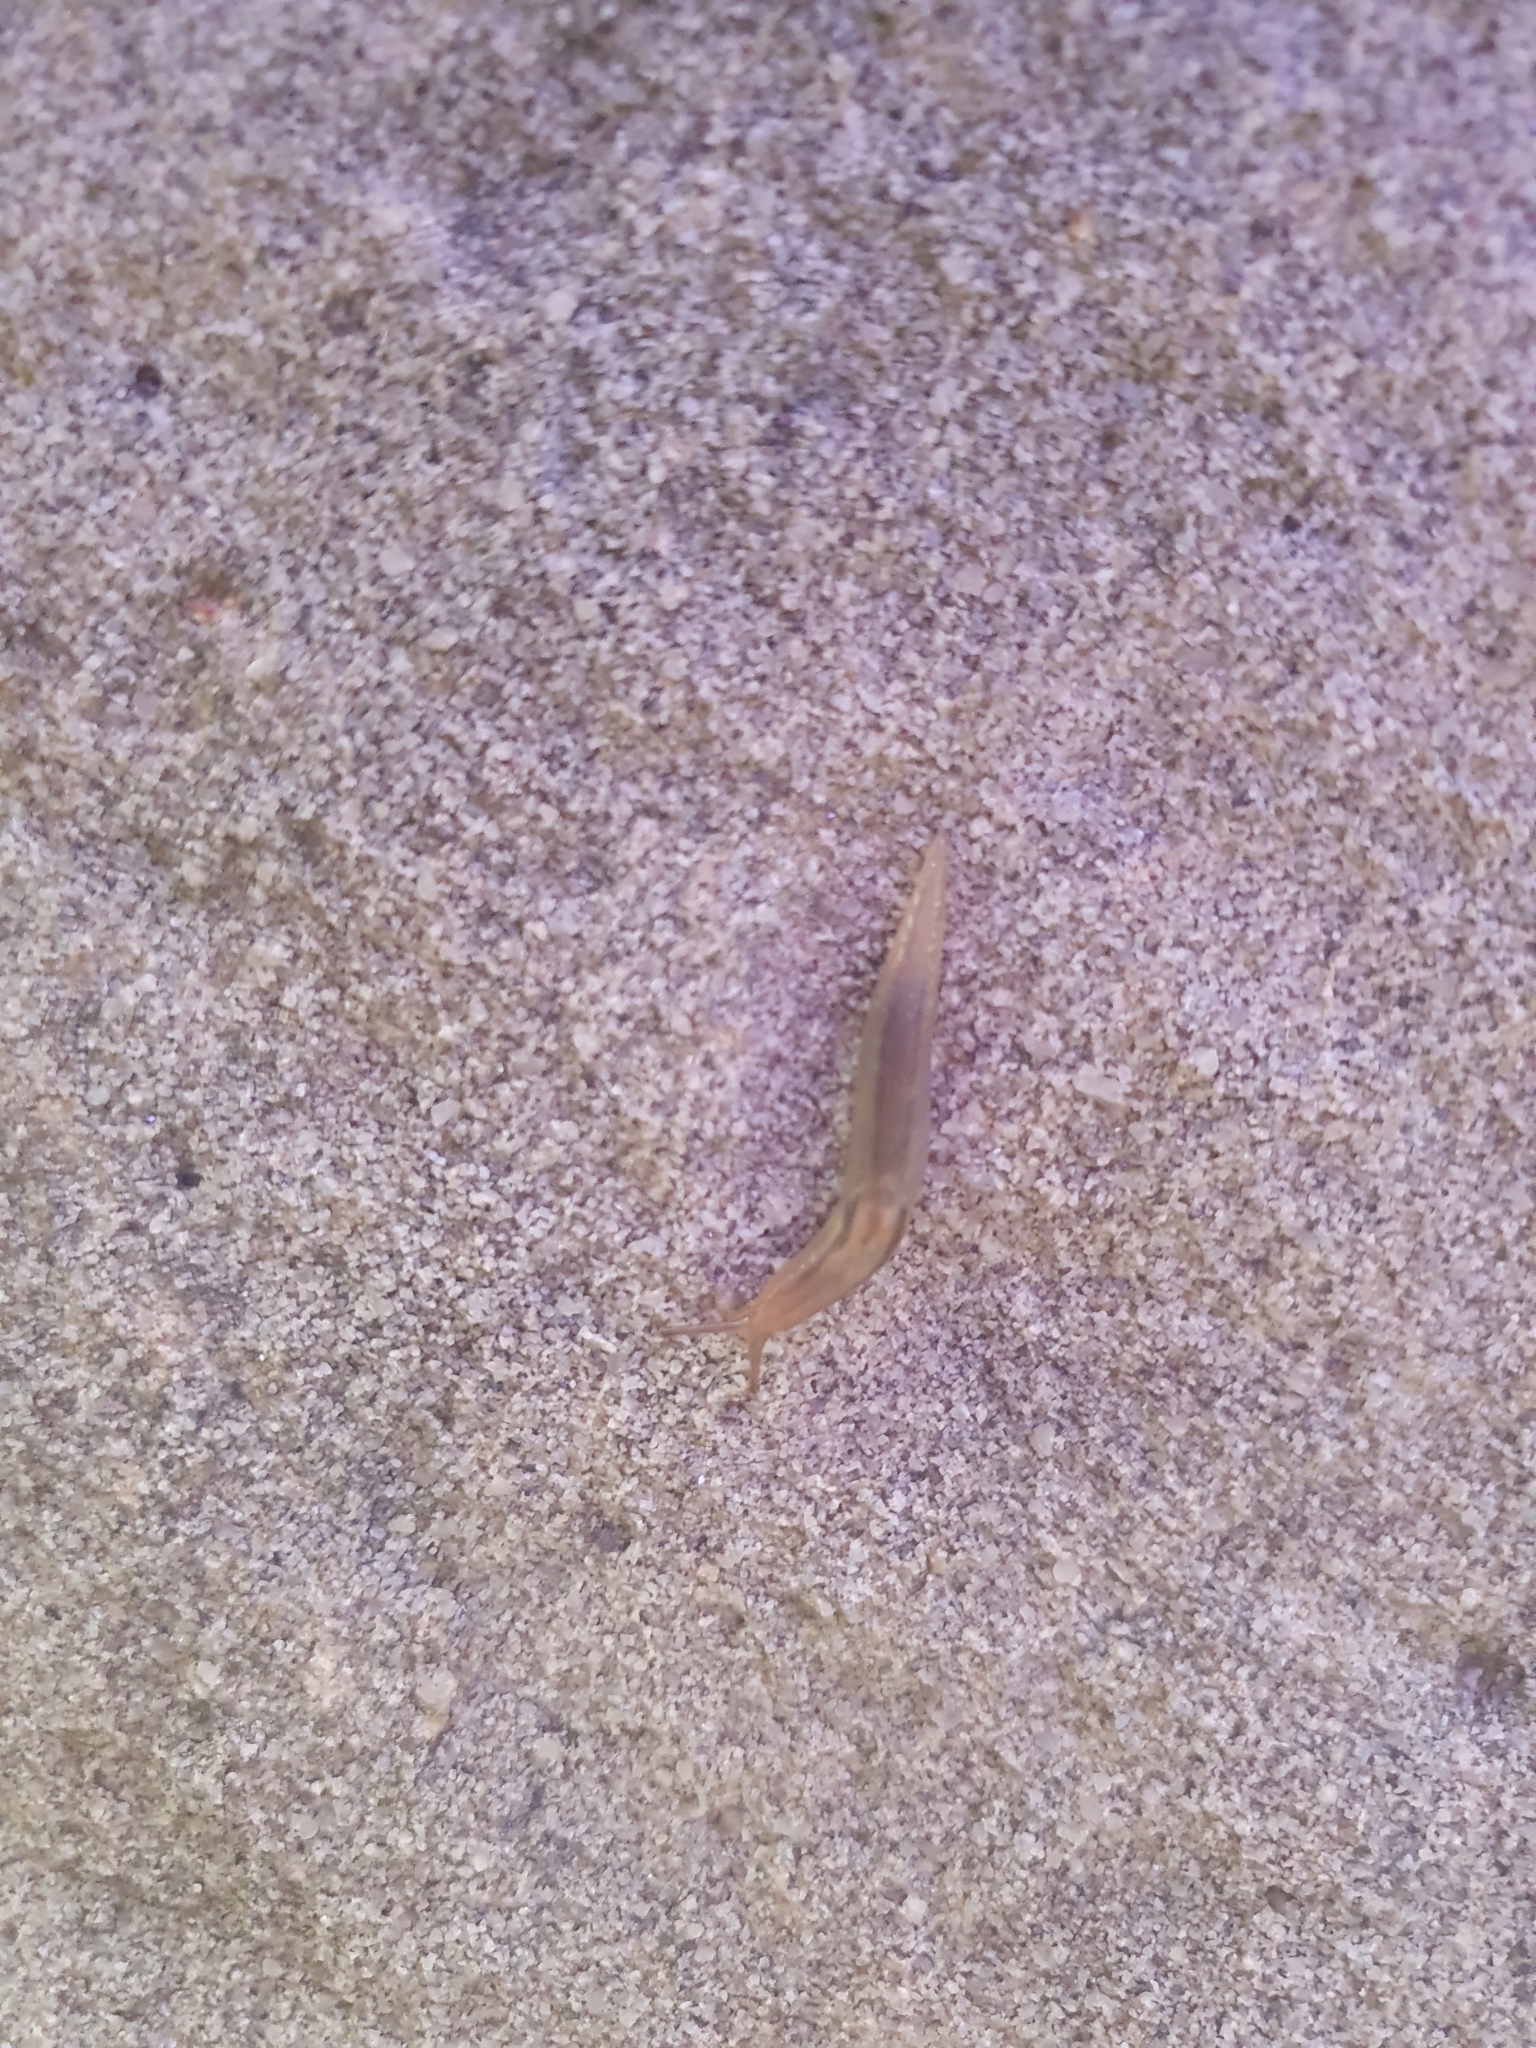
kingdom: Animalia
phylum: Mollusca
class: Gastropoda
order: Stylommatophora
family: Limacidae
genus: Ambigolimax
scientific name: Ambigolimax
